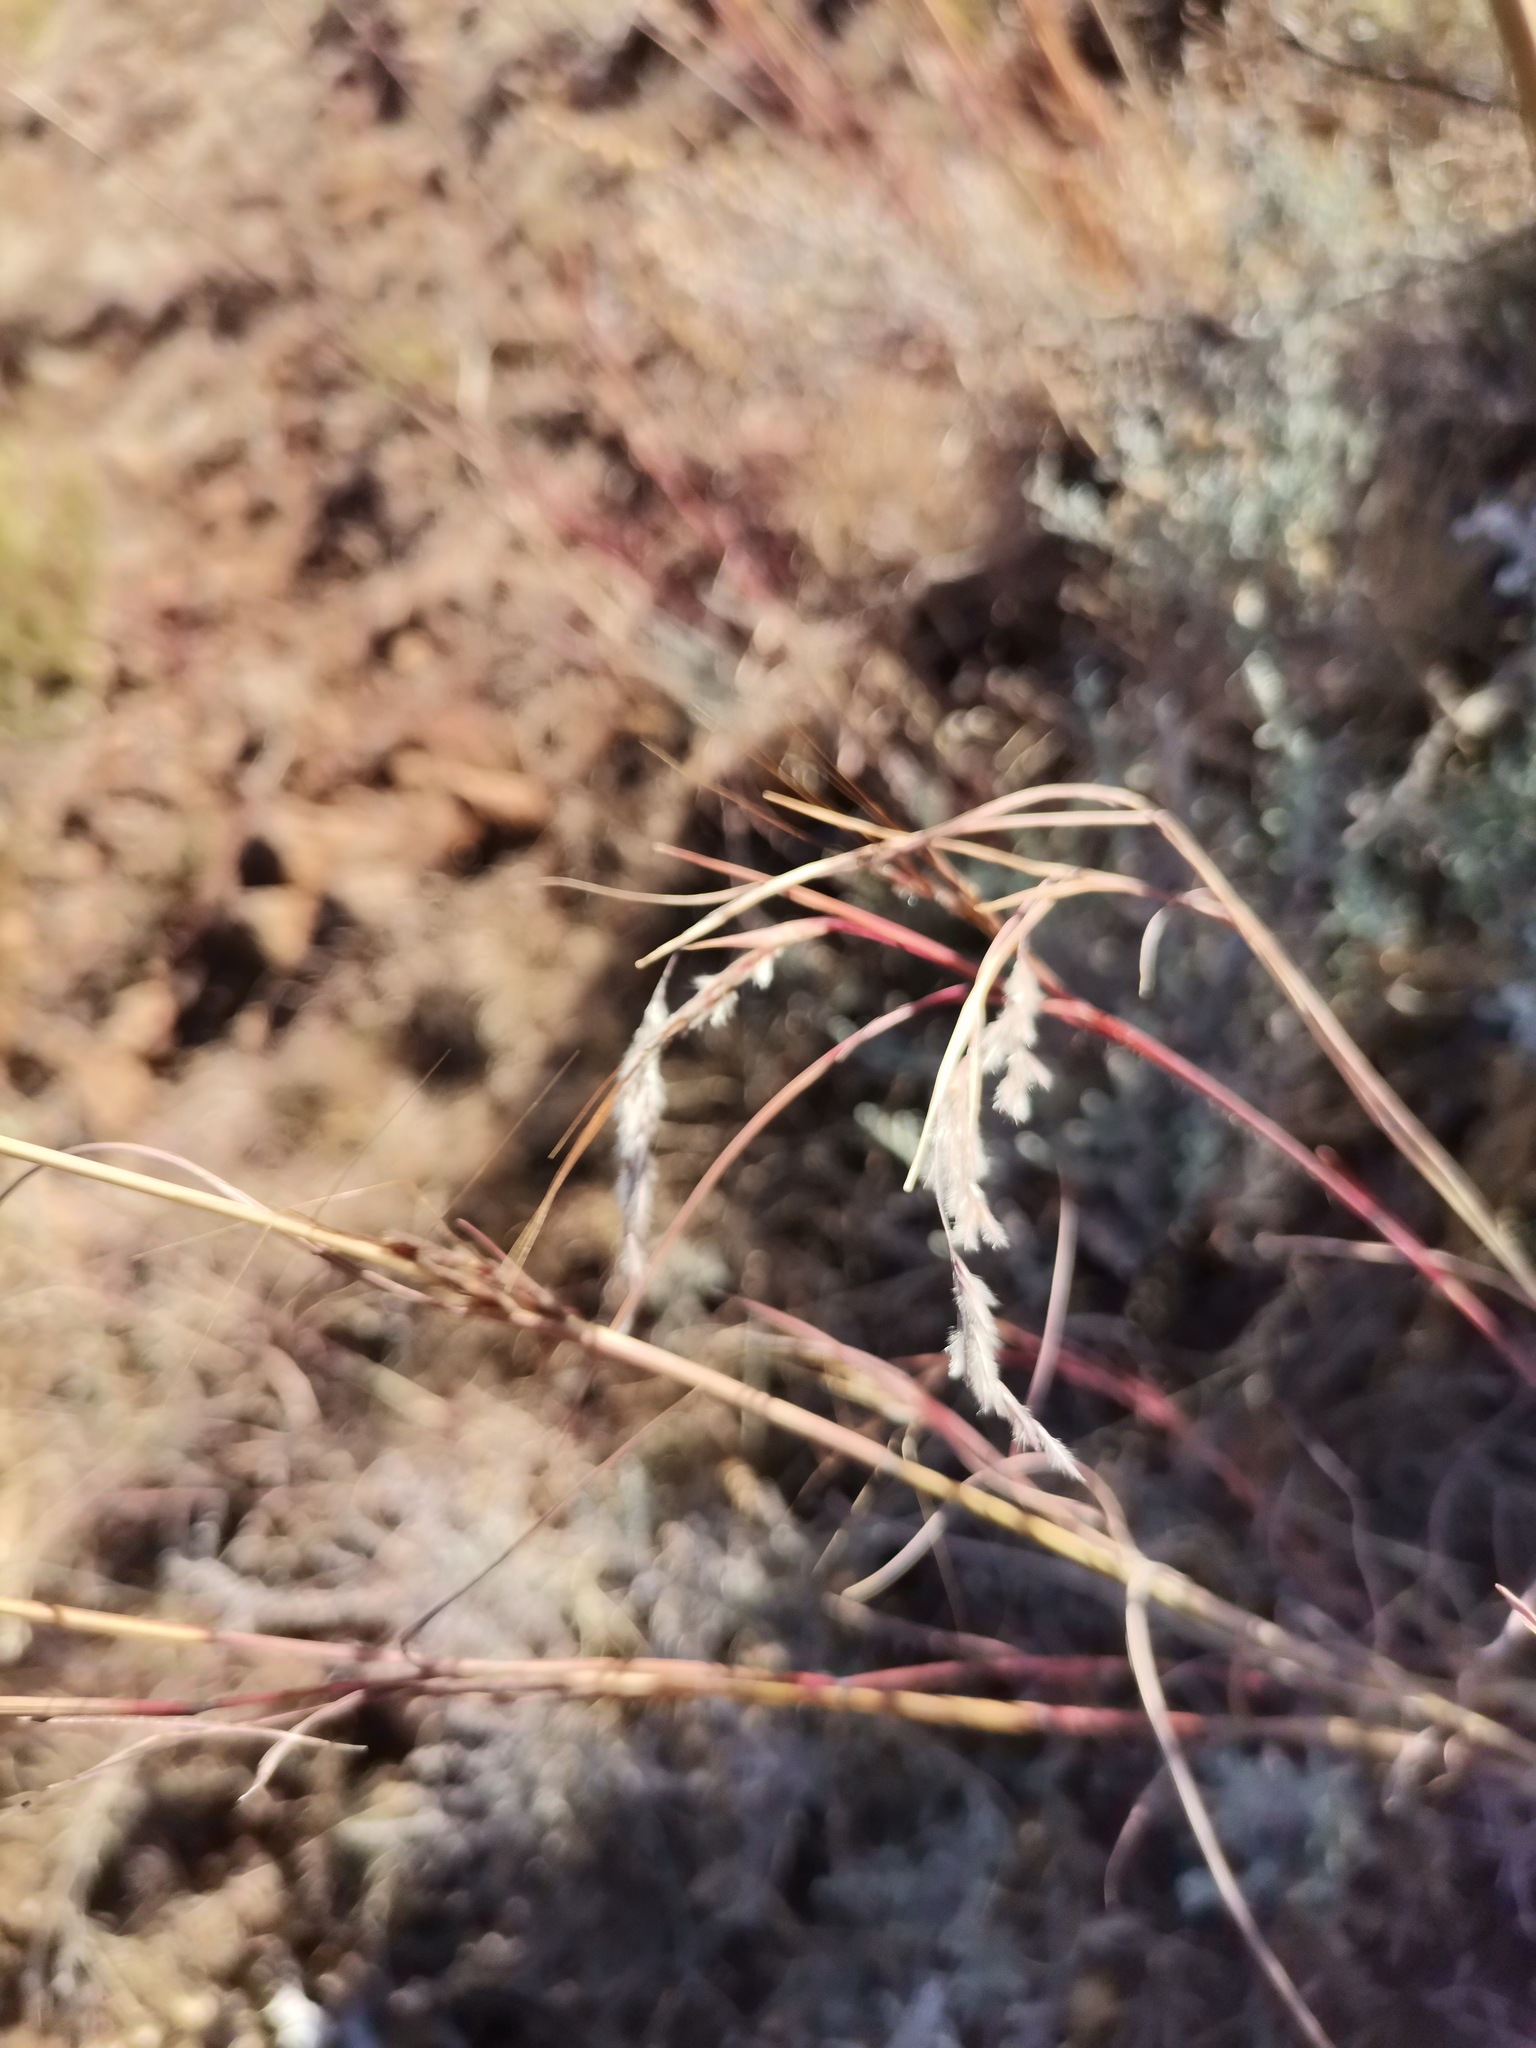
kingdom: Plantae
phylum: Tracheophyta
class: Liliopsida
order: Poales
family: Poaceae
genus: Hyparrhenia
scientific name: Hyparrhenia hirta
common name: Thatching grass
